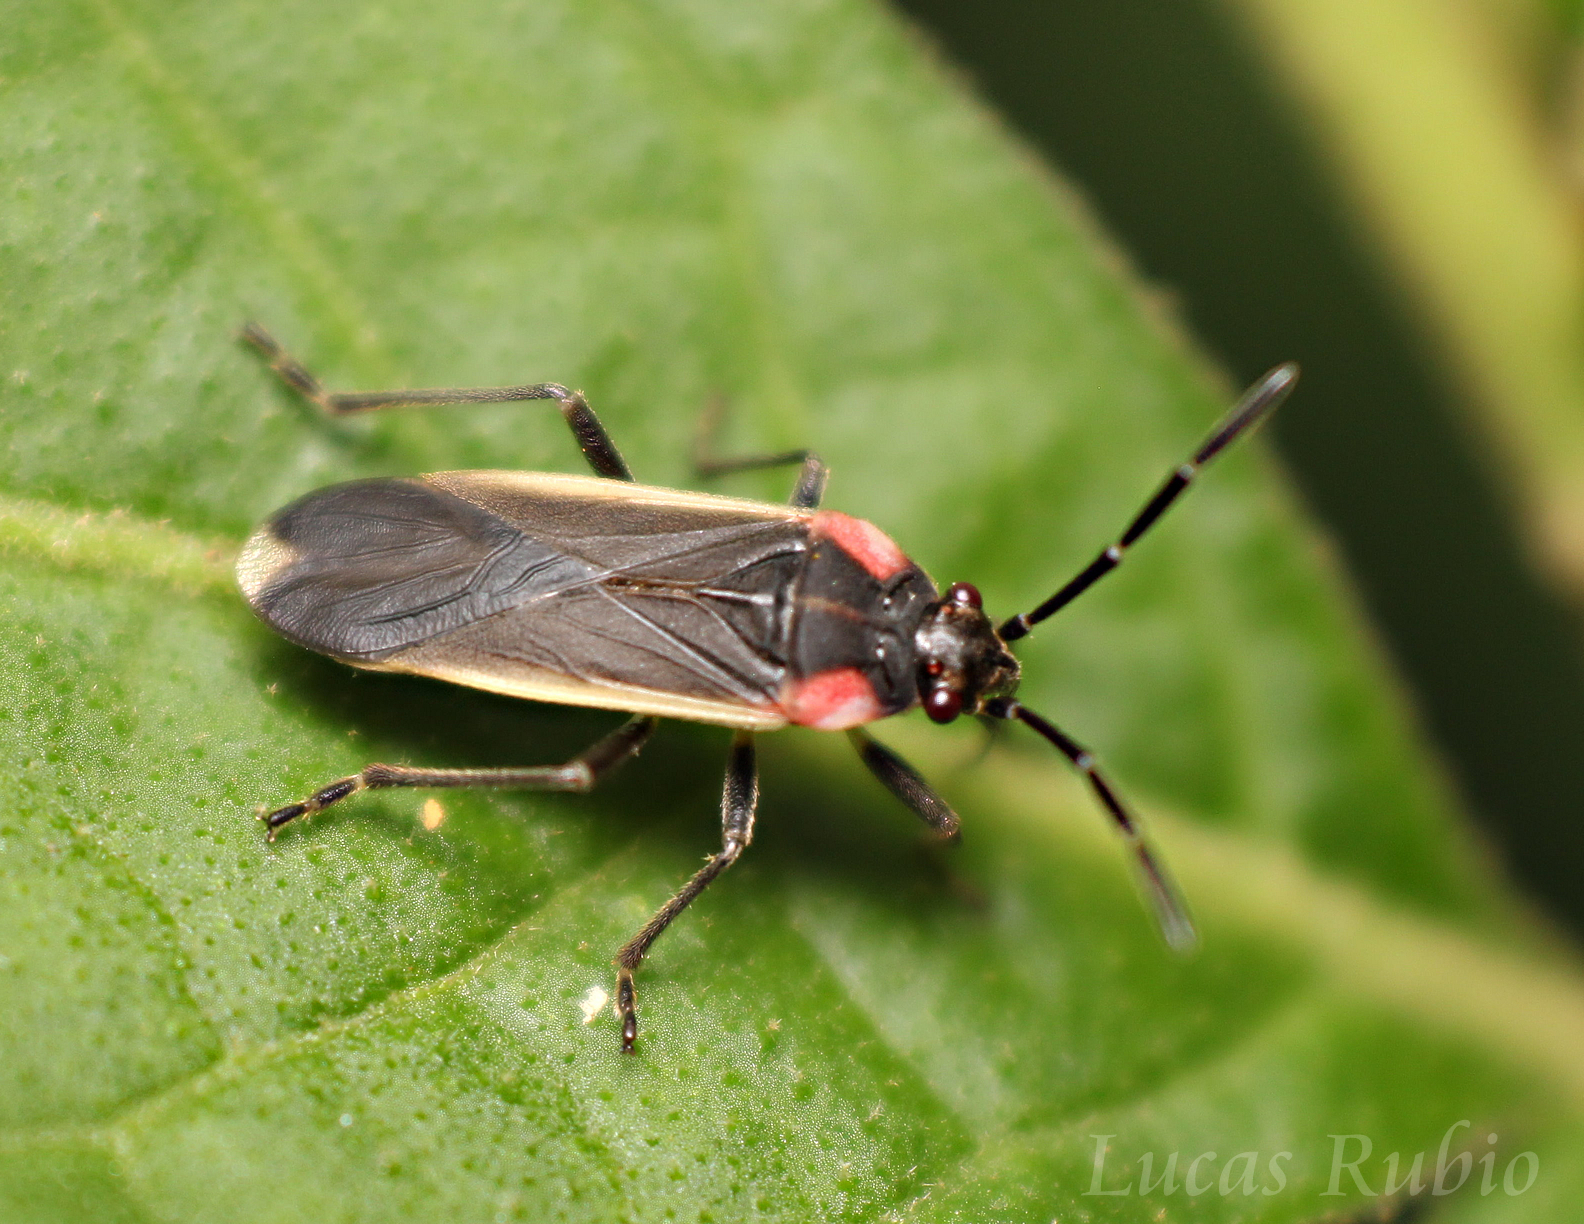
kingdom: Animalia
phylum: Arthropoda
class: Insecta
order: Hemiptera
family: Lygaeidae
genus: Acroleucus
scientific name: Acroleucus coxalis
